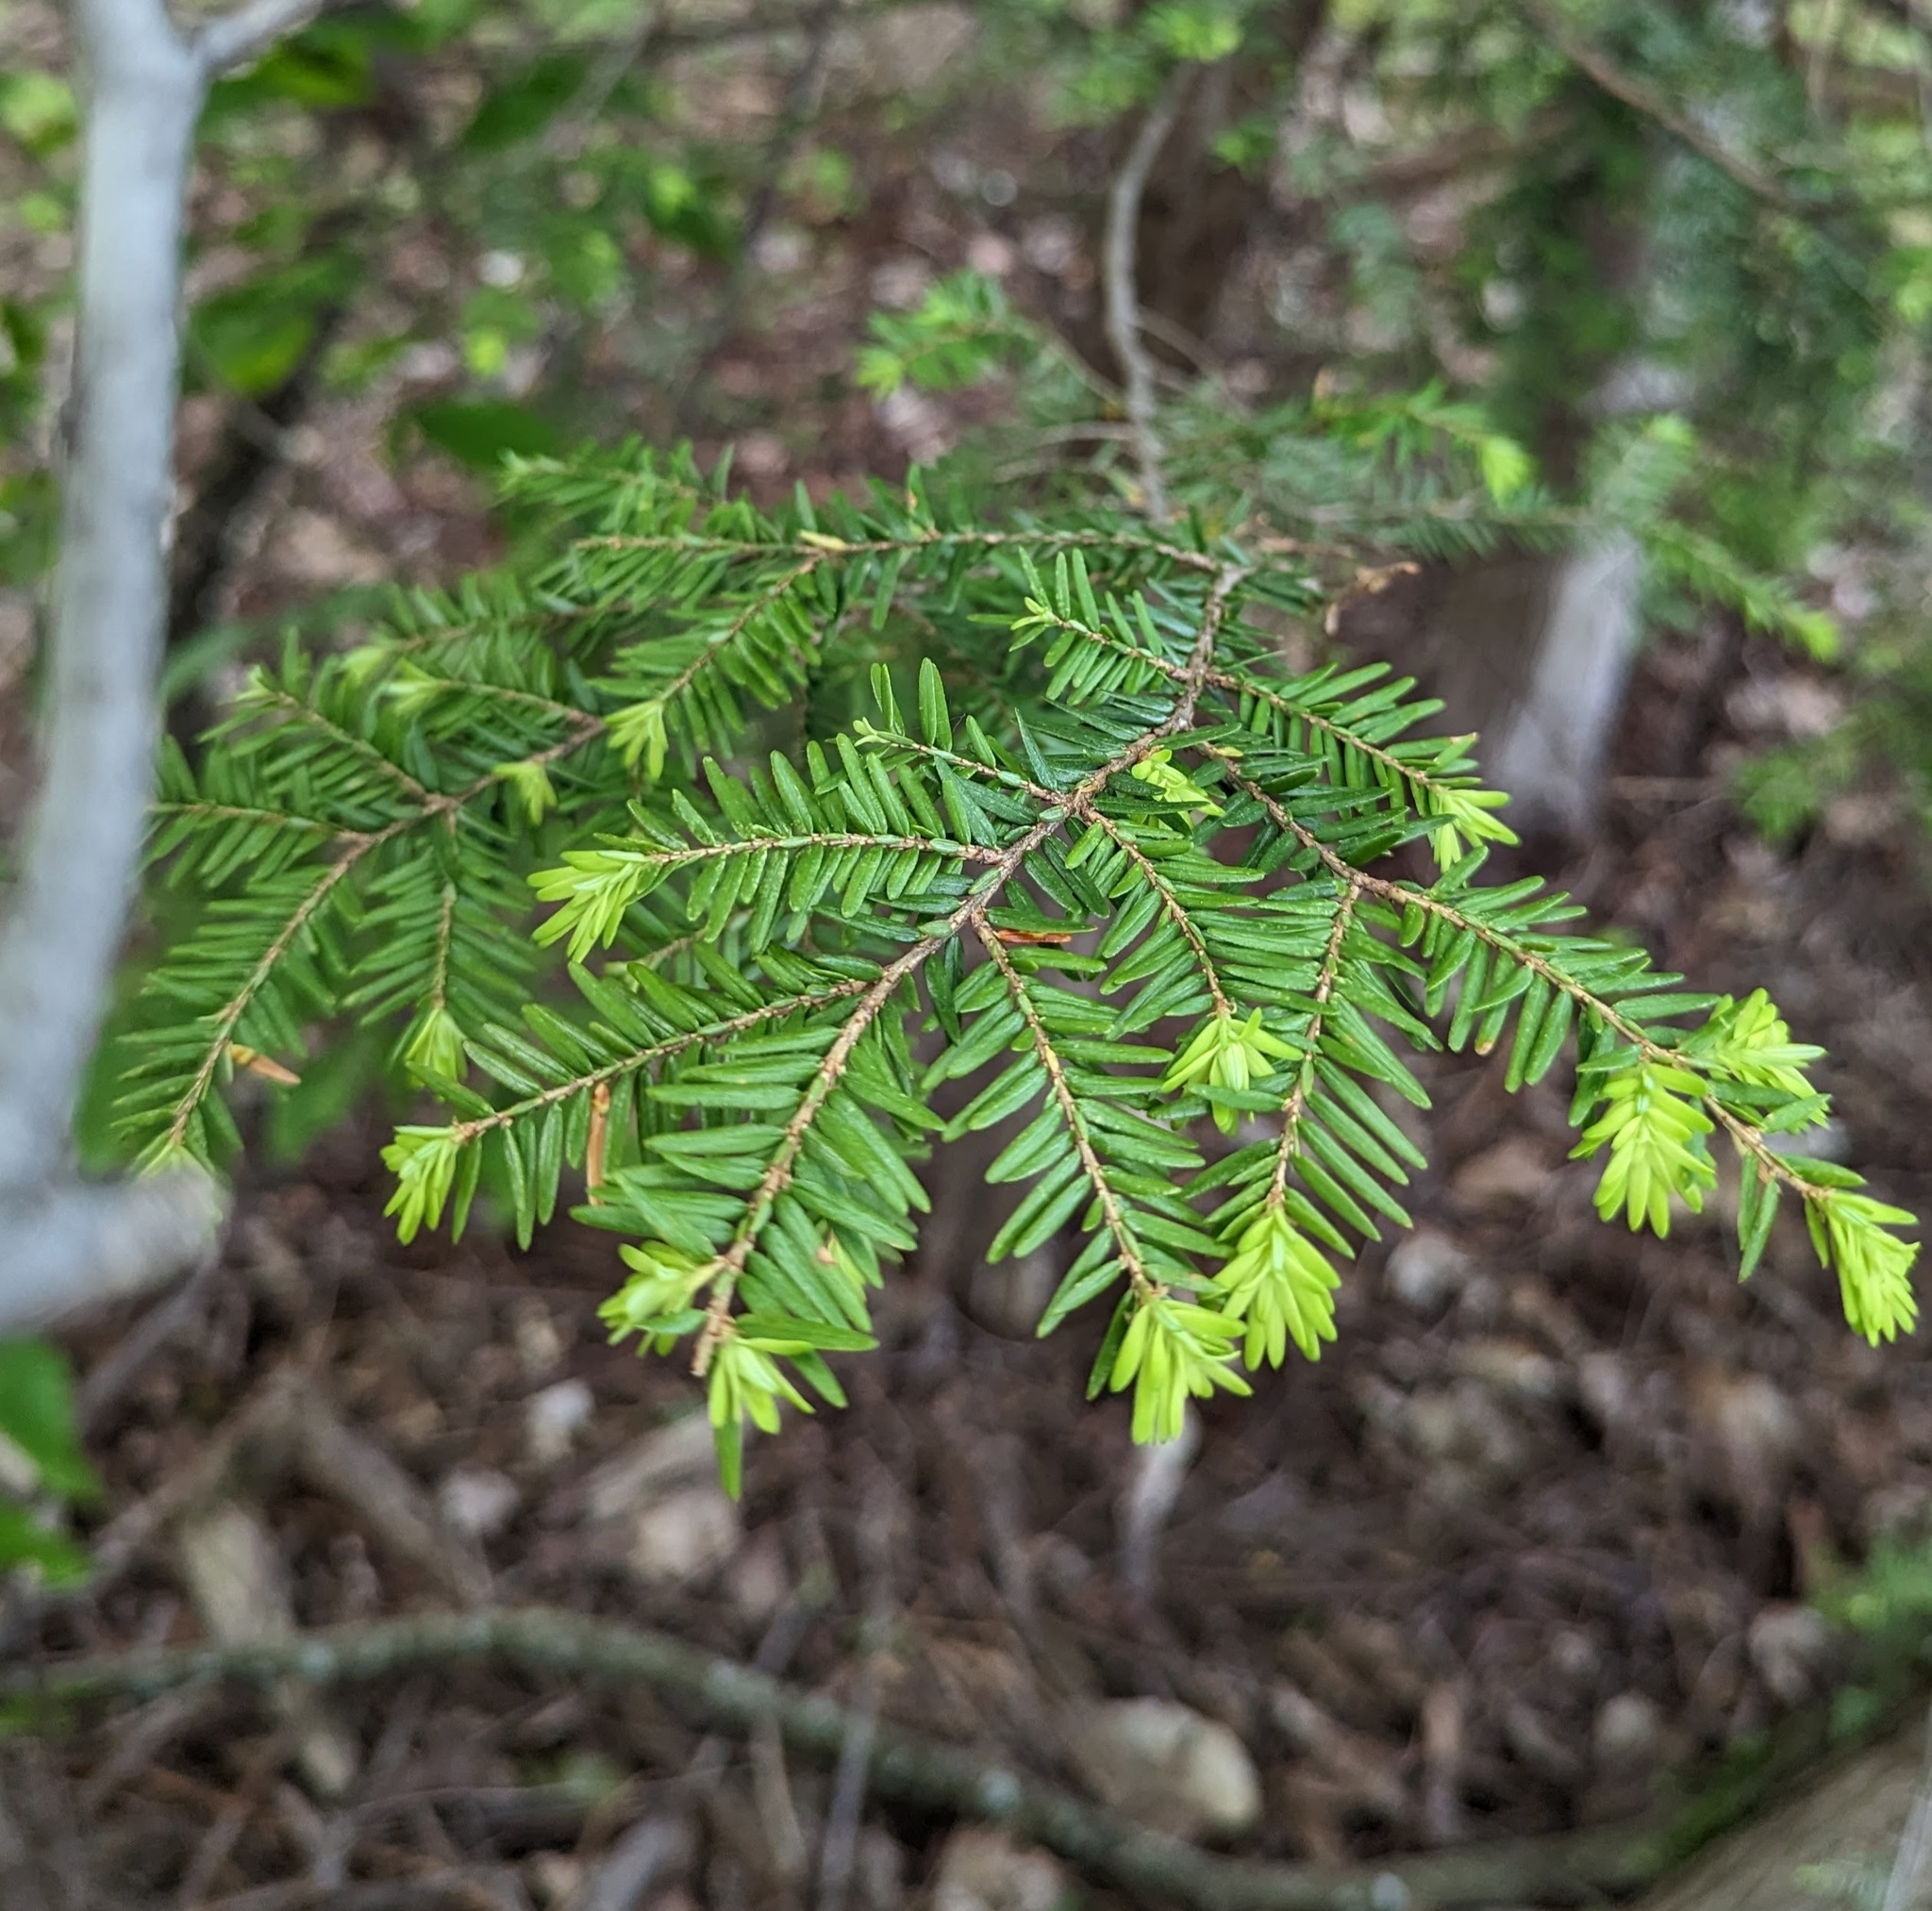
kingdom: Plantae
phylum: Tracheophyta
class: Pinopsida
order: Pinales
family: Pinaceae
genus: Tsuga
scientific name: Tsuga canadensis
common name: Eastern hemlock
